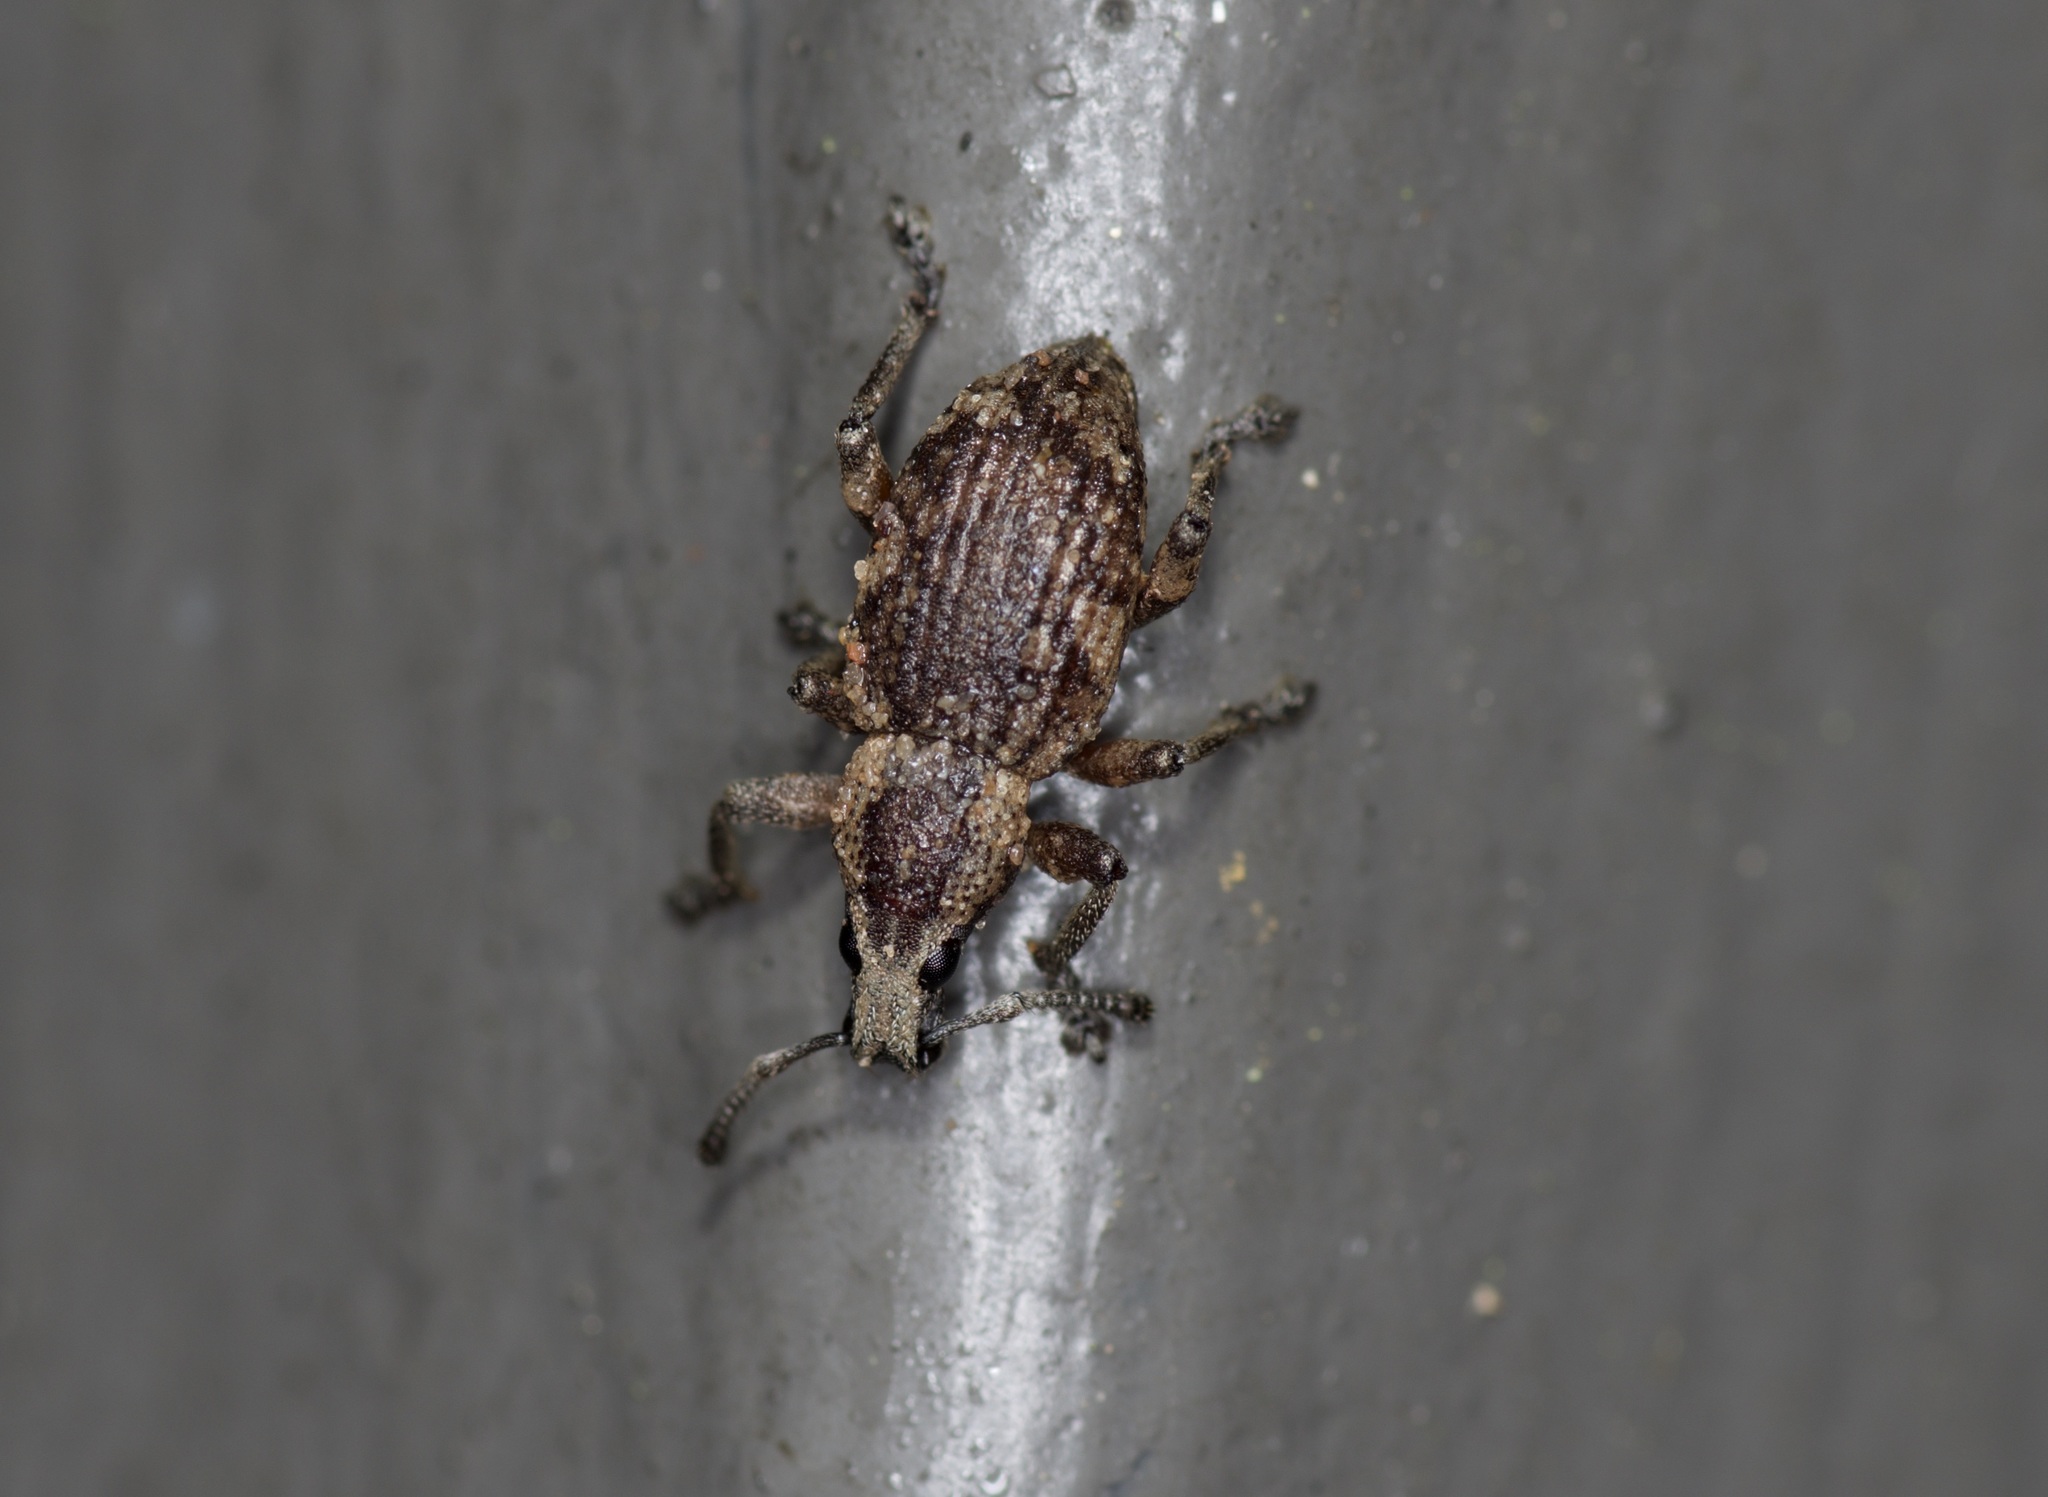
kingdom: Animalia
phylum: Arthropoda
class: Insecta
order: Coleoptera
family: Curculionidae
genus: Omileus
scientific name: Omileus epicaeroides
